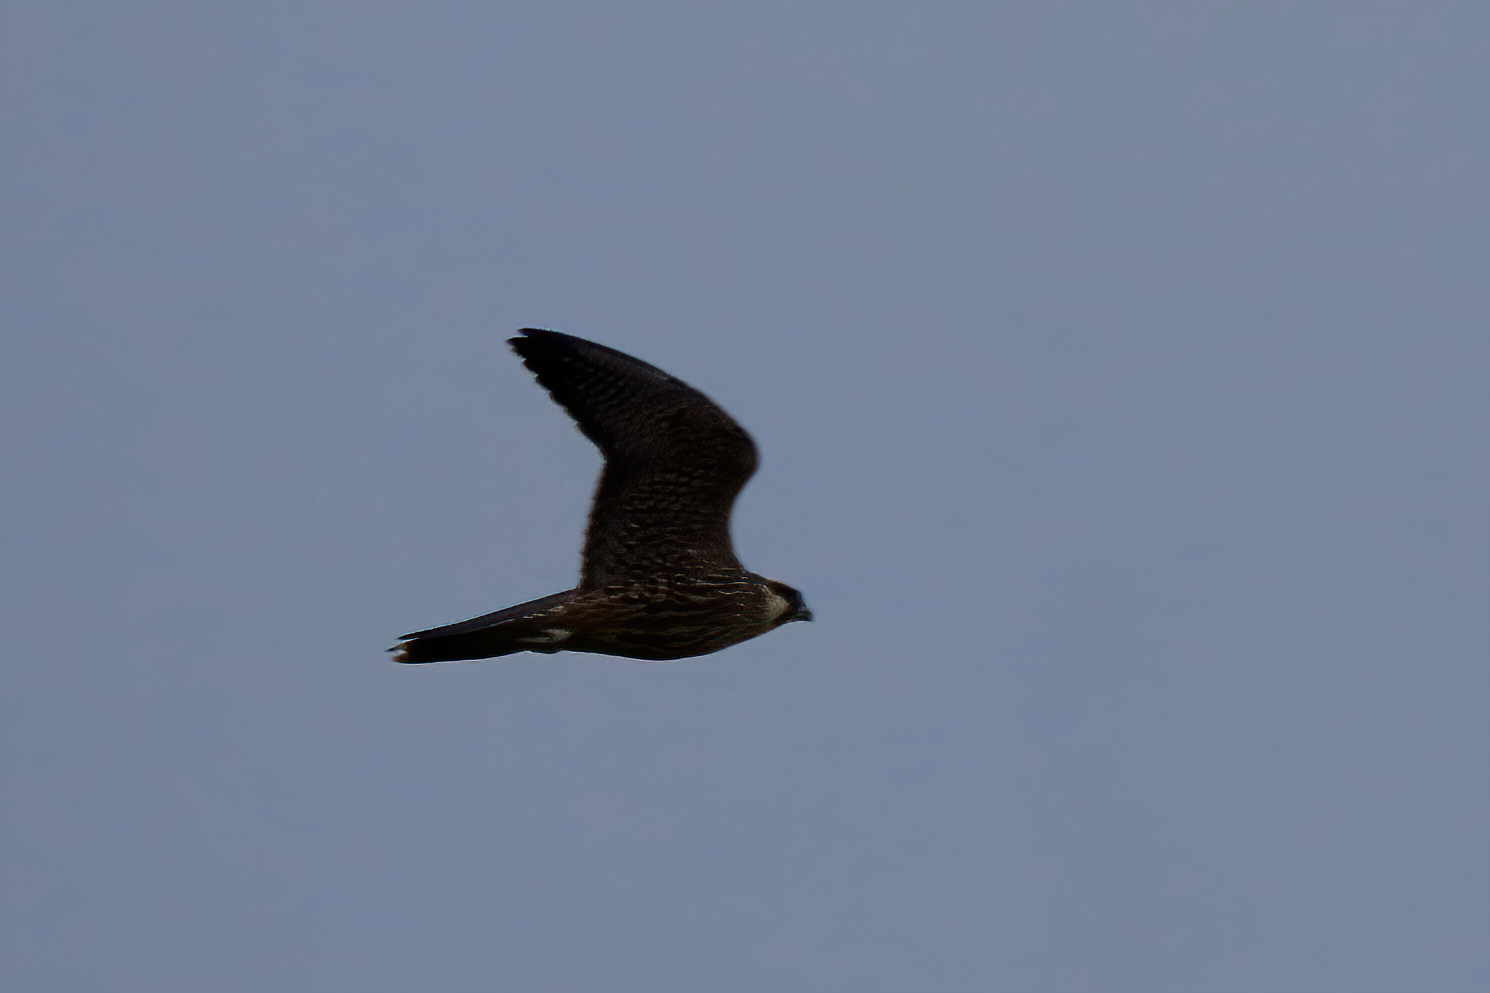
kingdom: Animalia
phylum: Chordata
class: Aves
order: Falconiformes
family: Falconidae
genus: Falco
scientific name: Falco peregrinus
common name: Peregrine falcon
